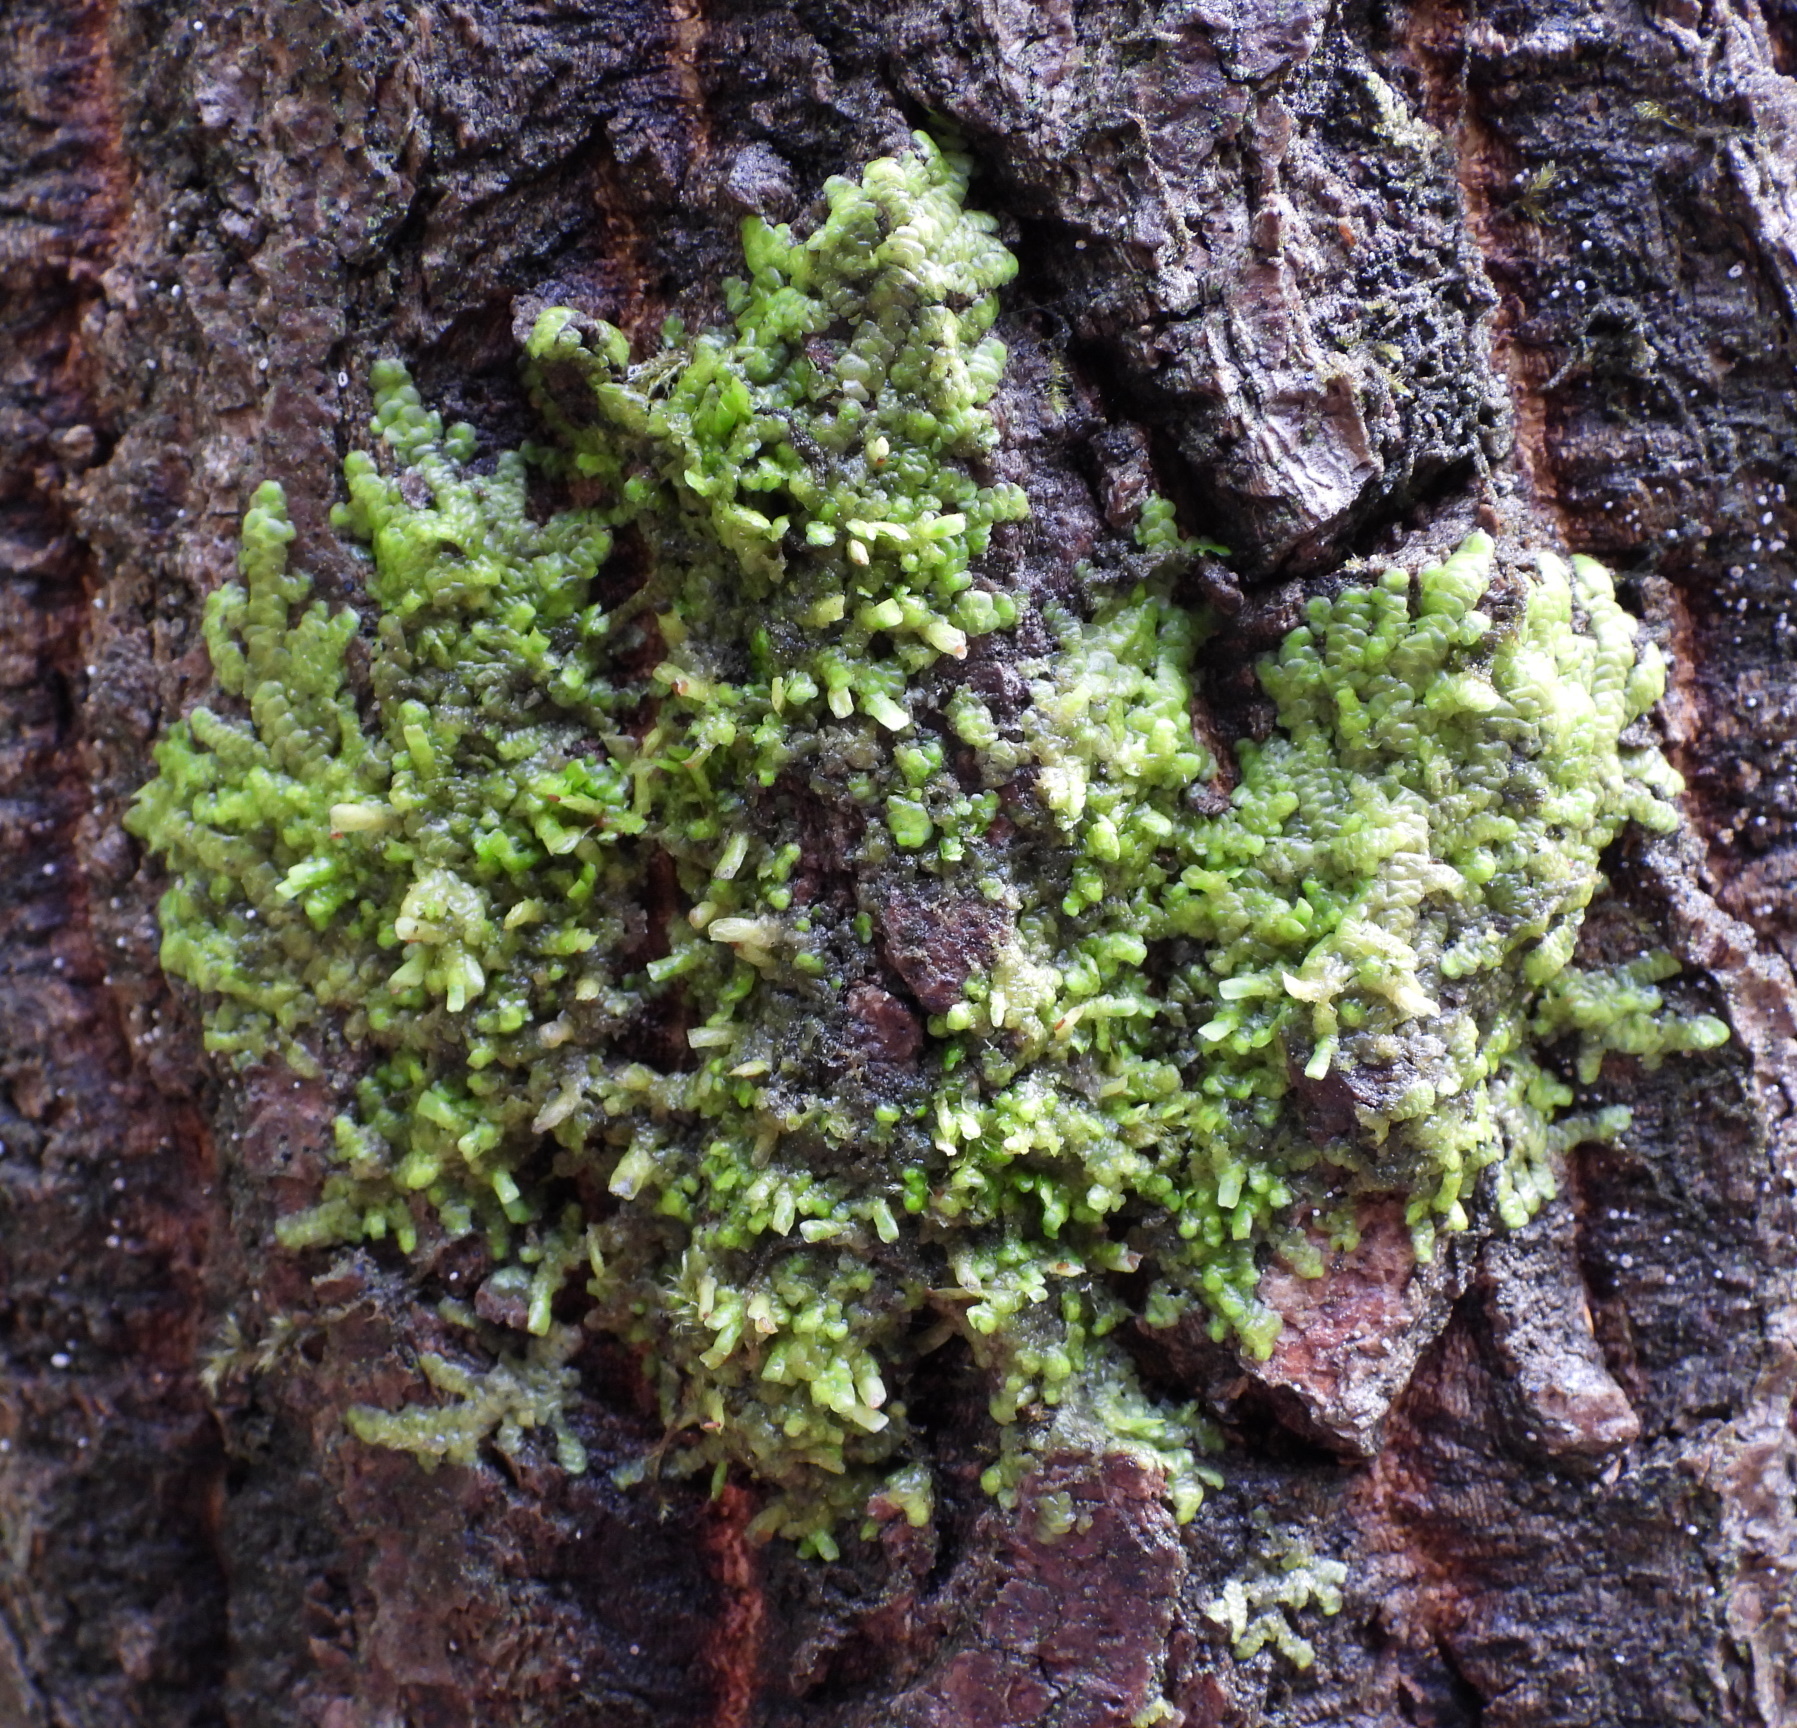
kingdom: Plantae
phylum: Marchantiophyta
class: Jungermanniopsida
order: Porellales
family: Radulaceae
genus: Radula
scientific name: Radula complanata
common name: Flat-leaved scalewort
